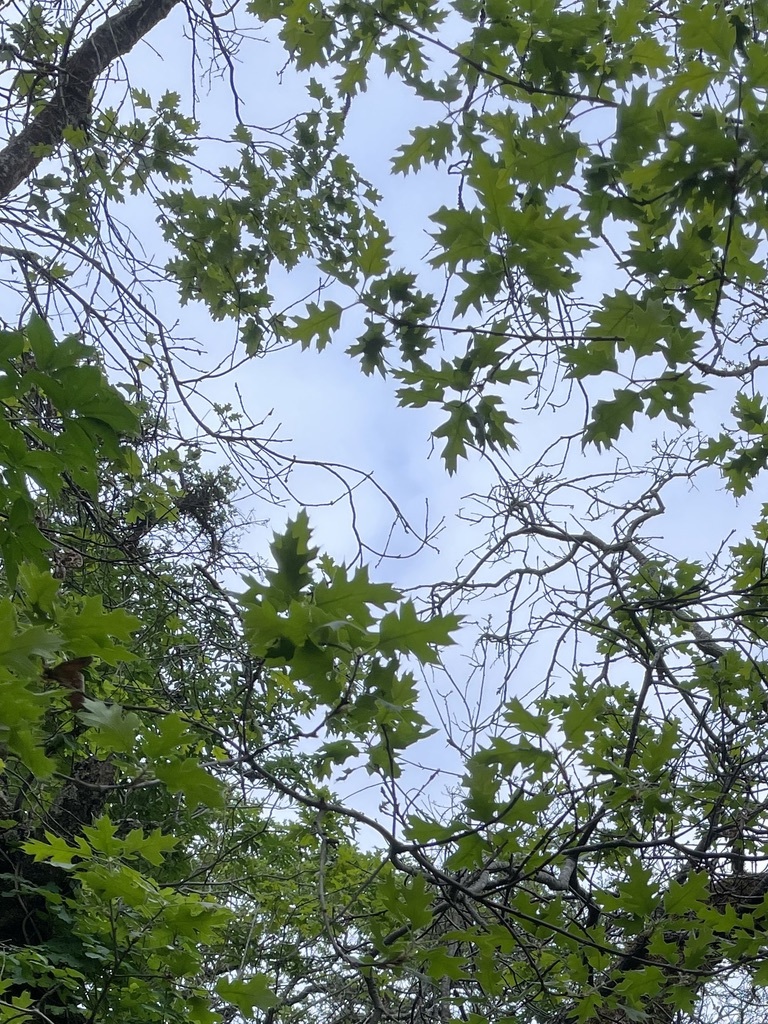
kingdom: Plantae
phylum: Tracheophyta
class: Magnoliopsida
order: Fagales
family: Fagaceae
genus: Quercus
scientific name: Quercus kelloggii
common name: California black oak
